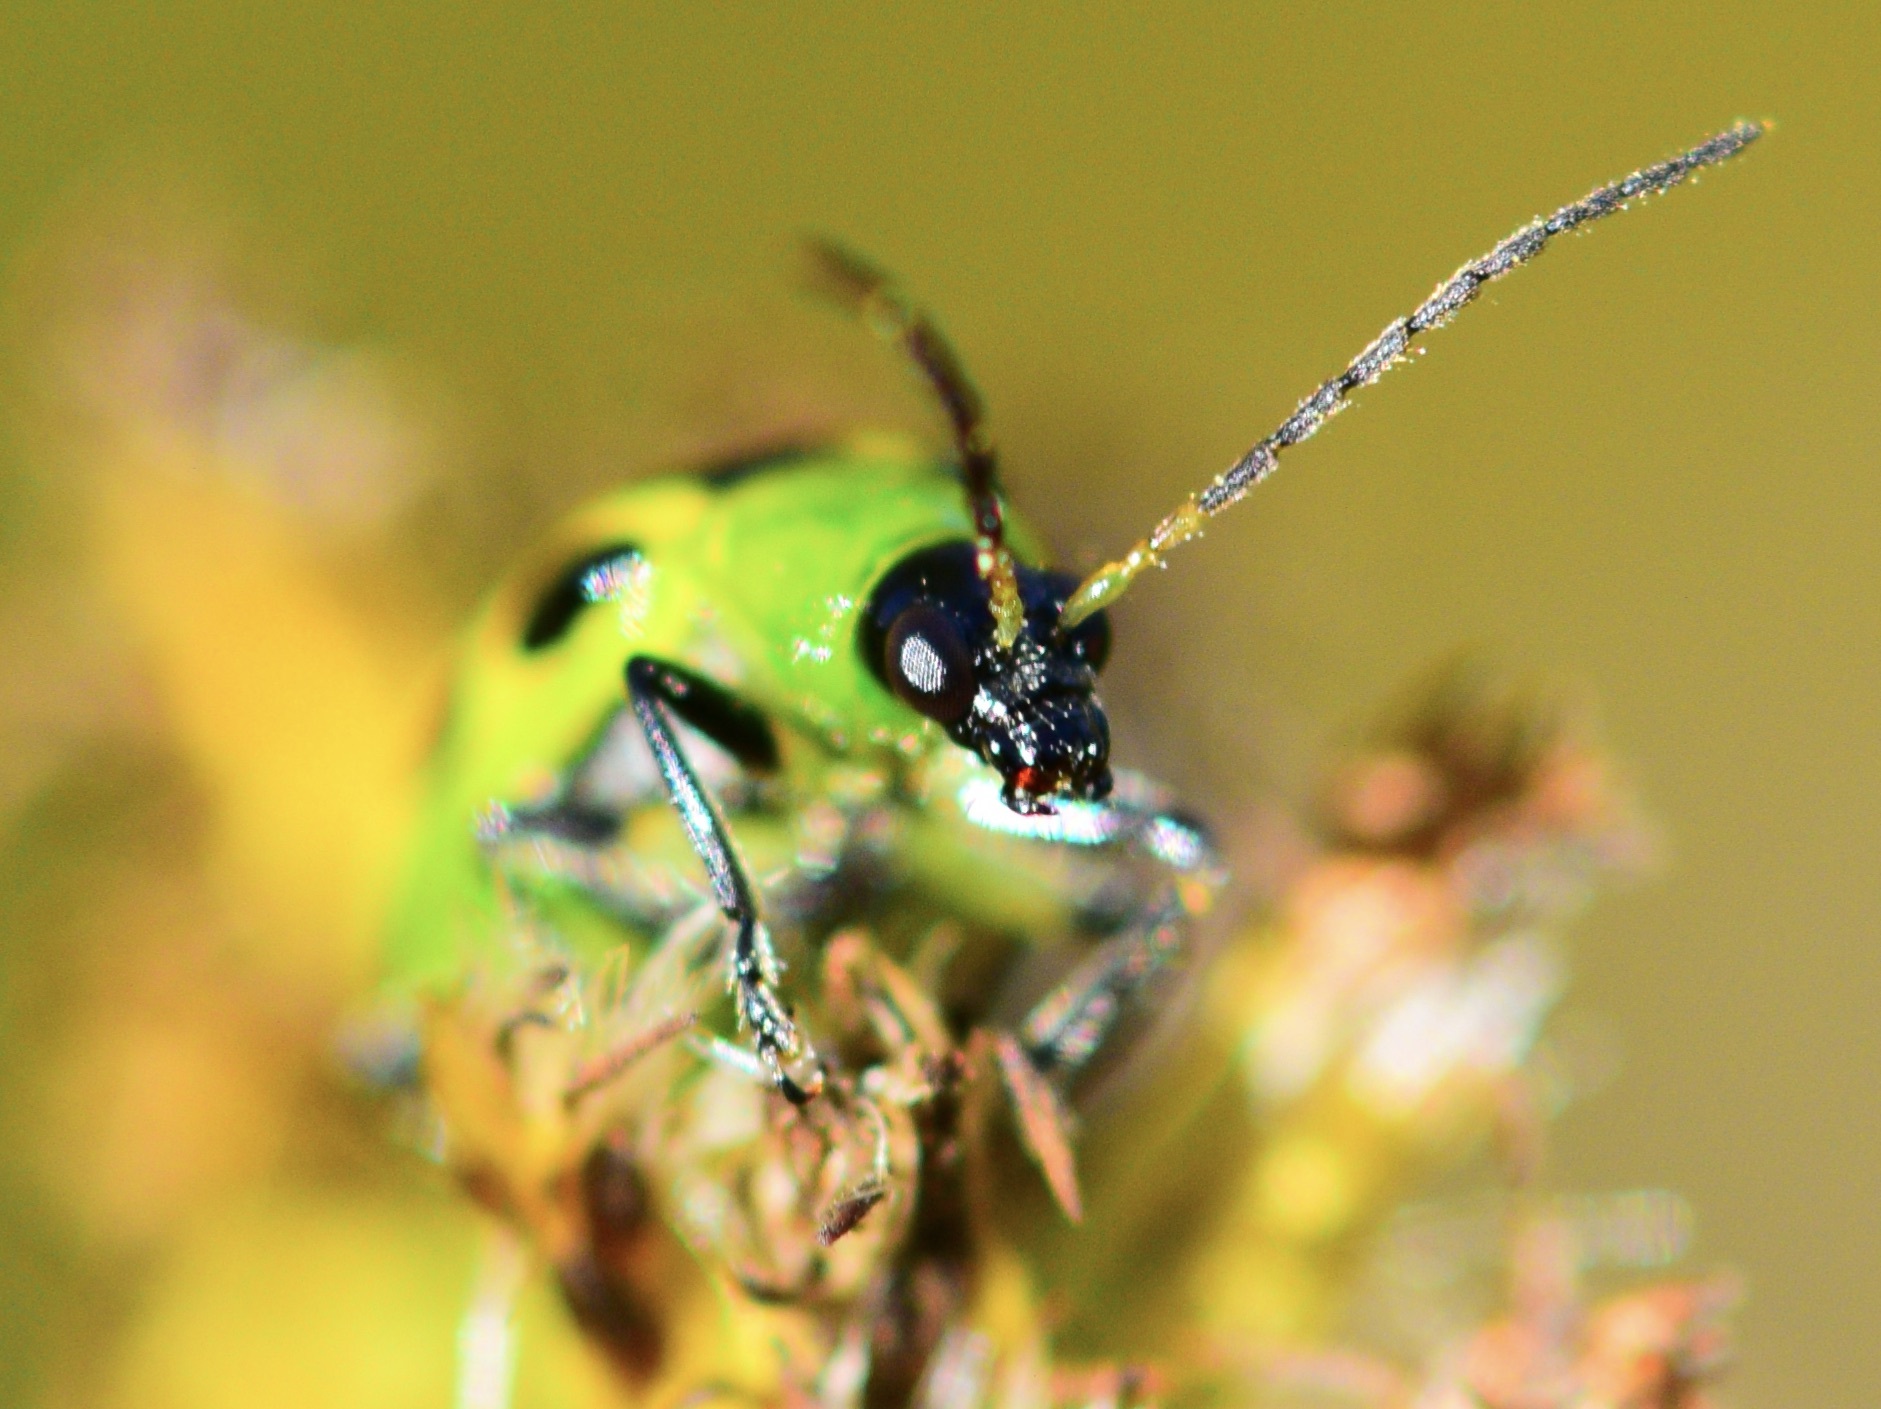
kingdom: Animalia
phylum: Arthropoda
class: Insecta
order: Coleoptera
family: Chrysomelidae
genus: Diabrotica
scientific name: Diabrotica undecimpunctata
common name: Spotted cucumber beetle
